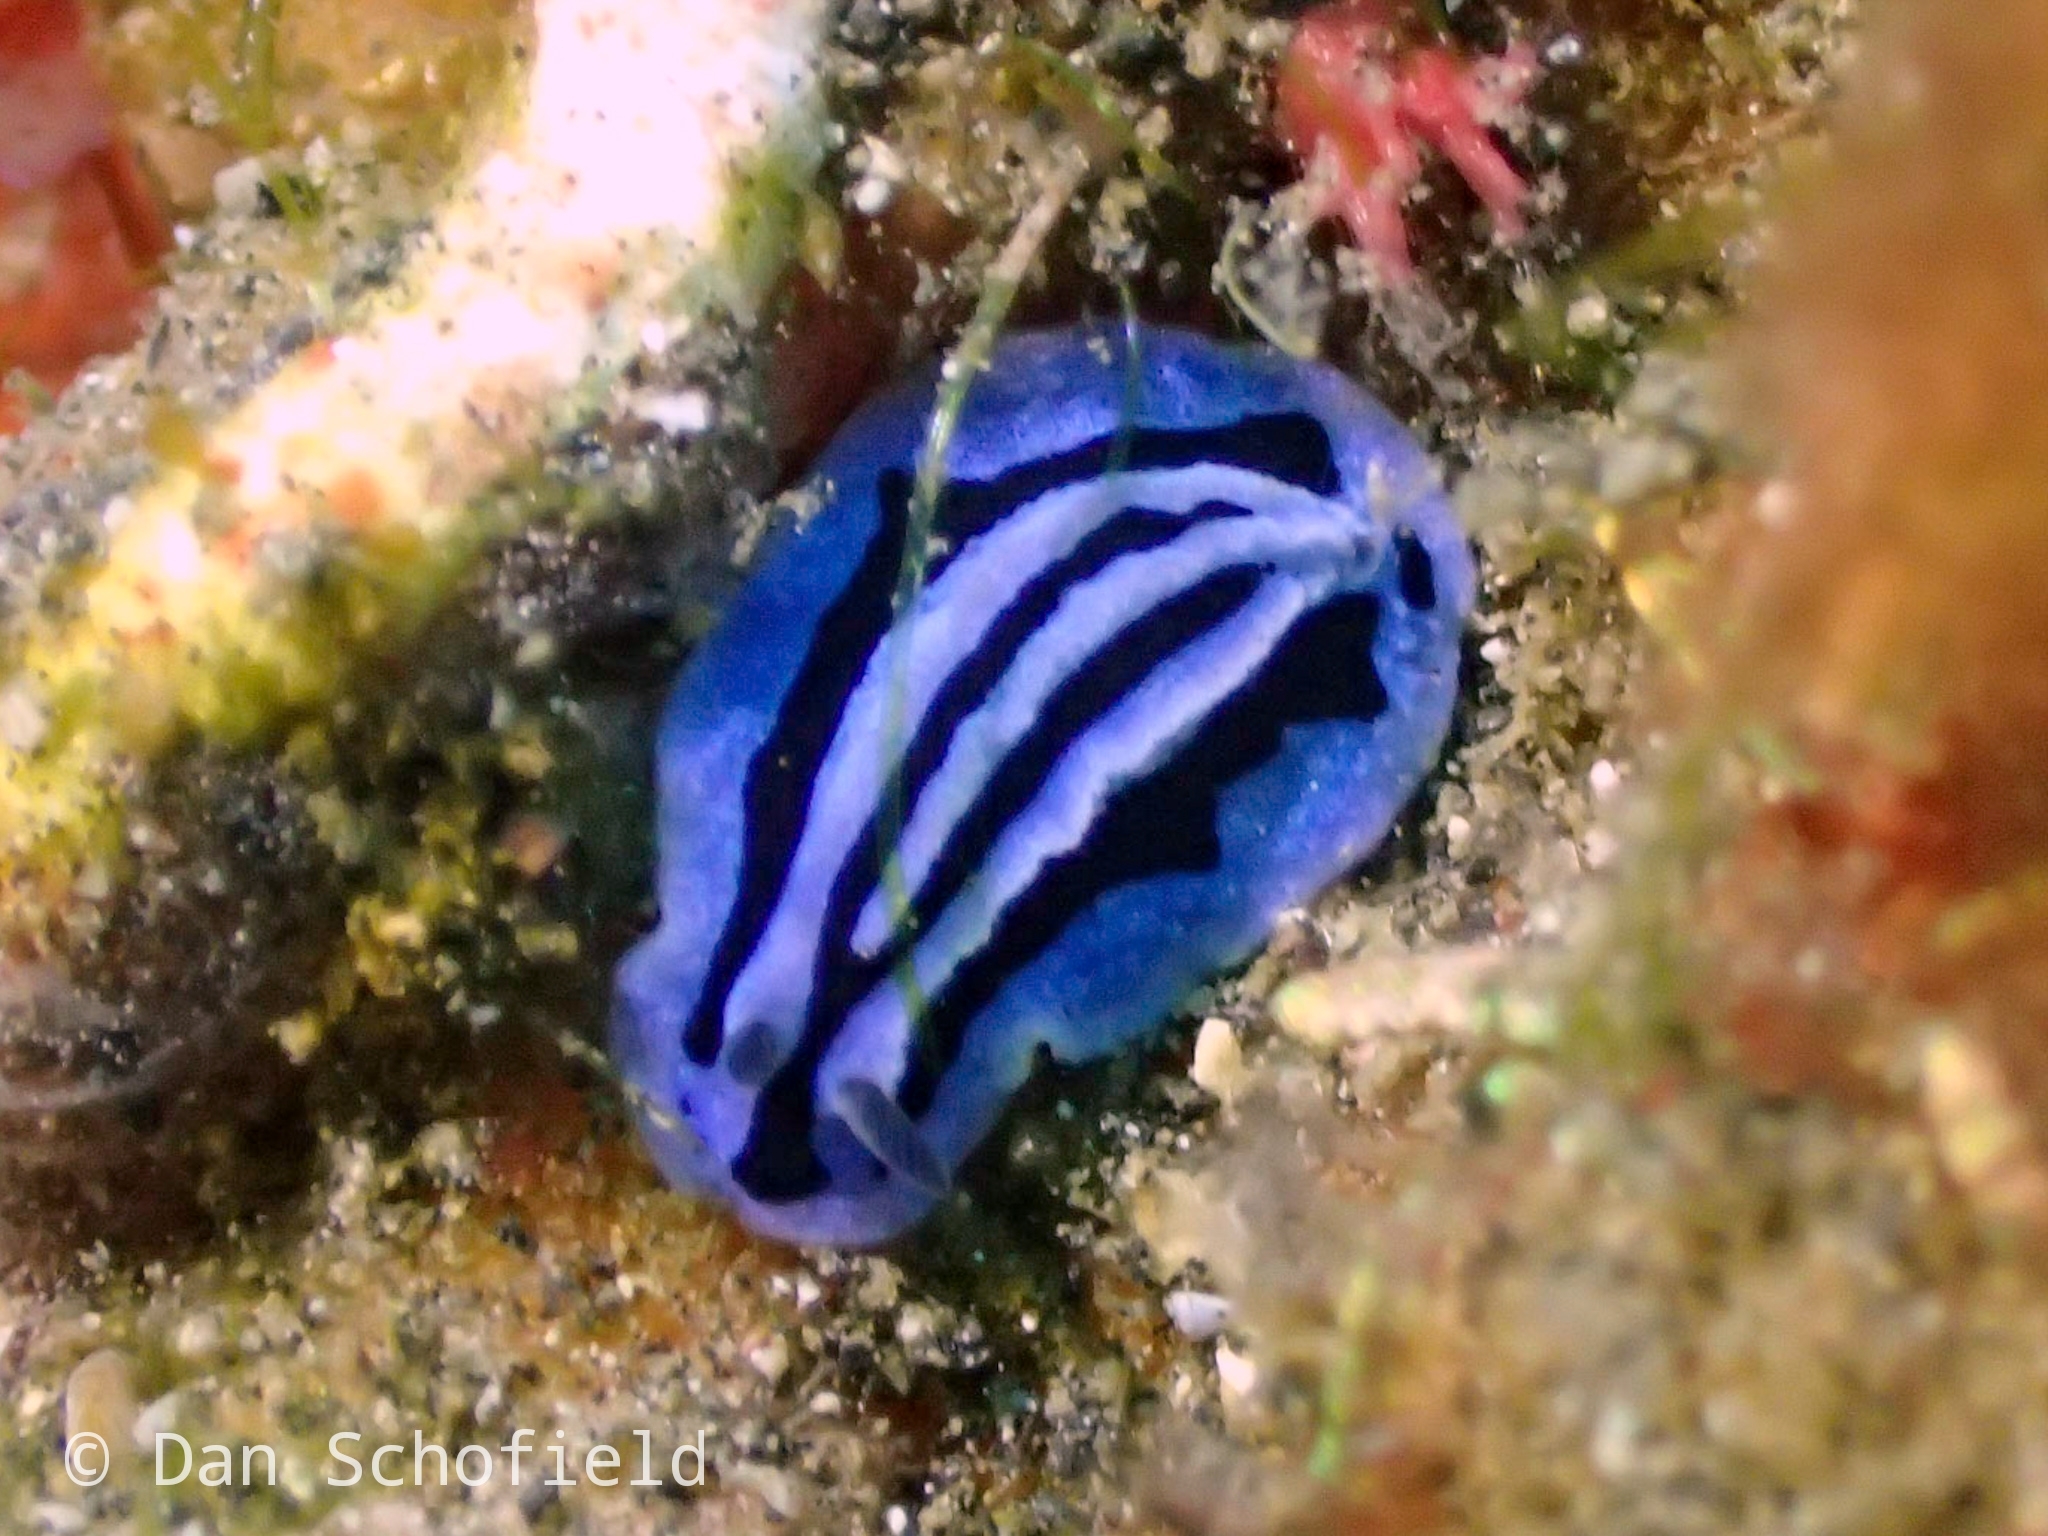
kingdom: Animalia
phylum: Mollusca
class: Gastropoda
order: Nudibranchia
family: Phyllidiidae
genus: Phyllidiopsis
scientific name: Phyllidiopsis annae
